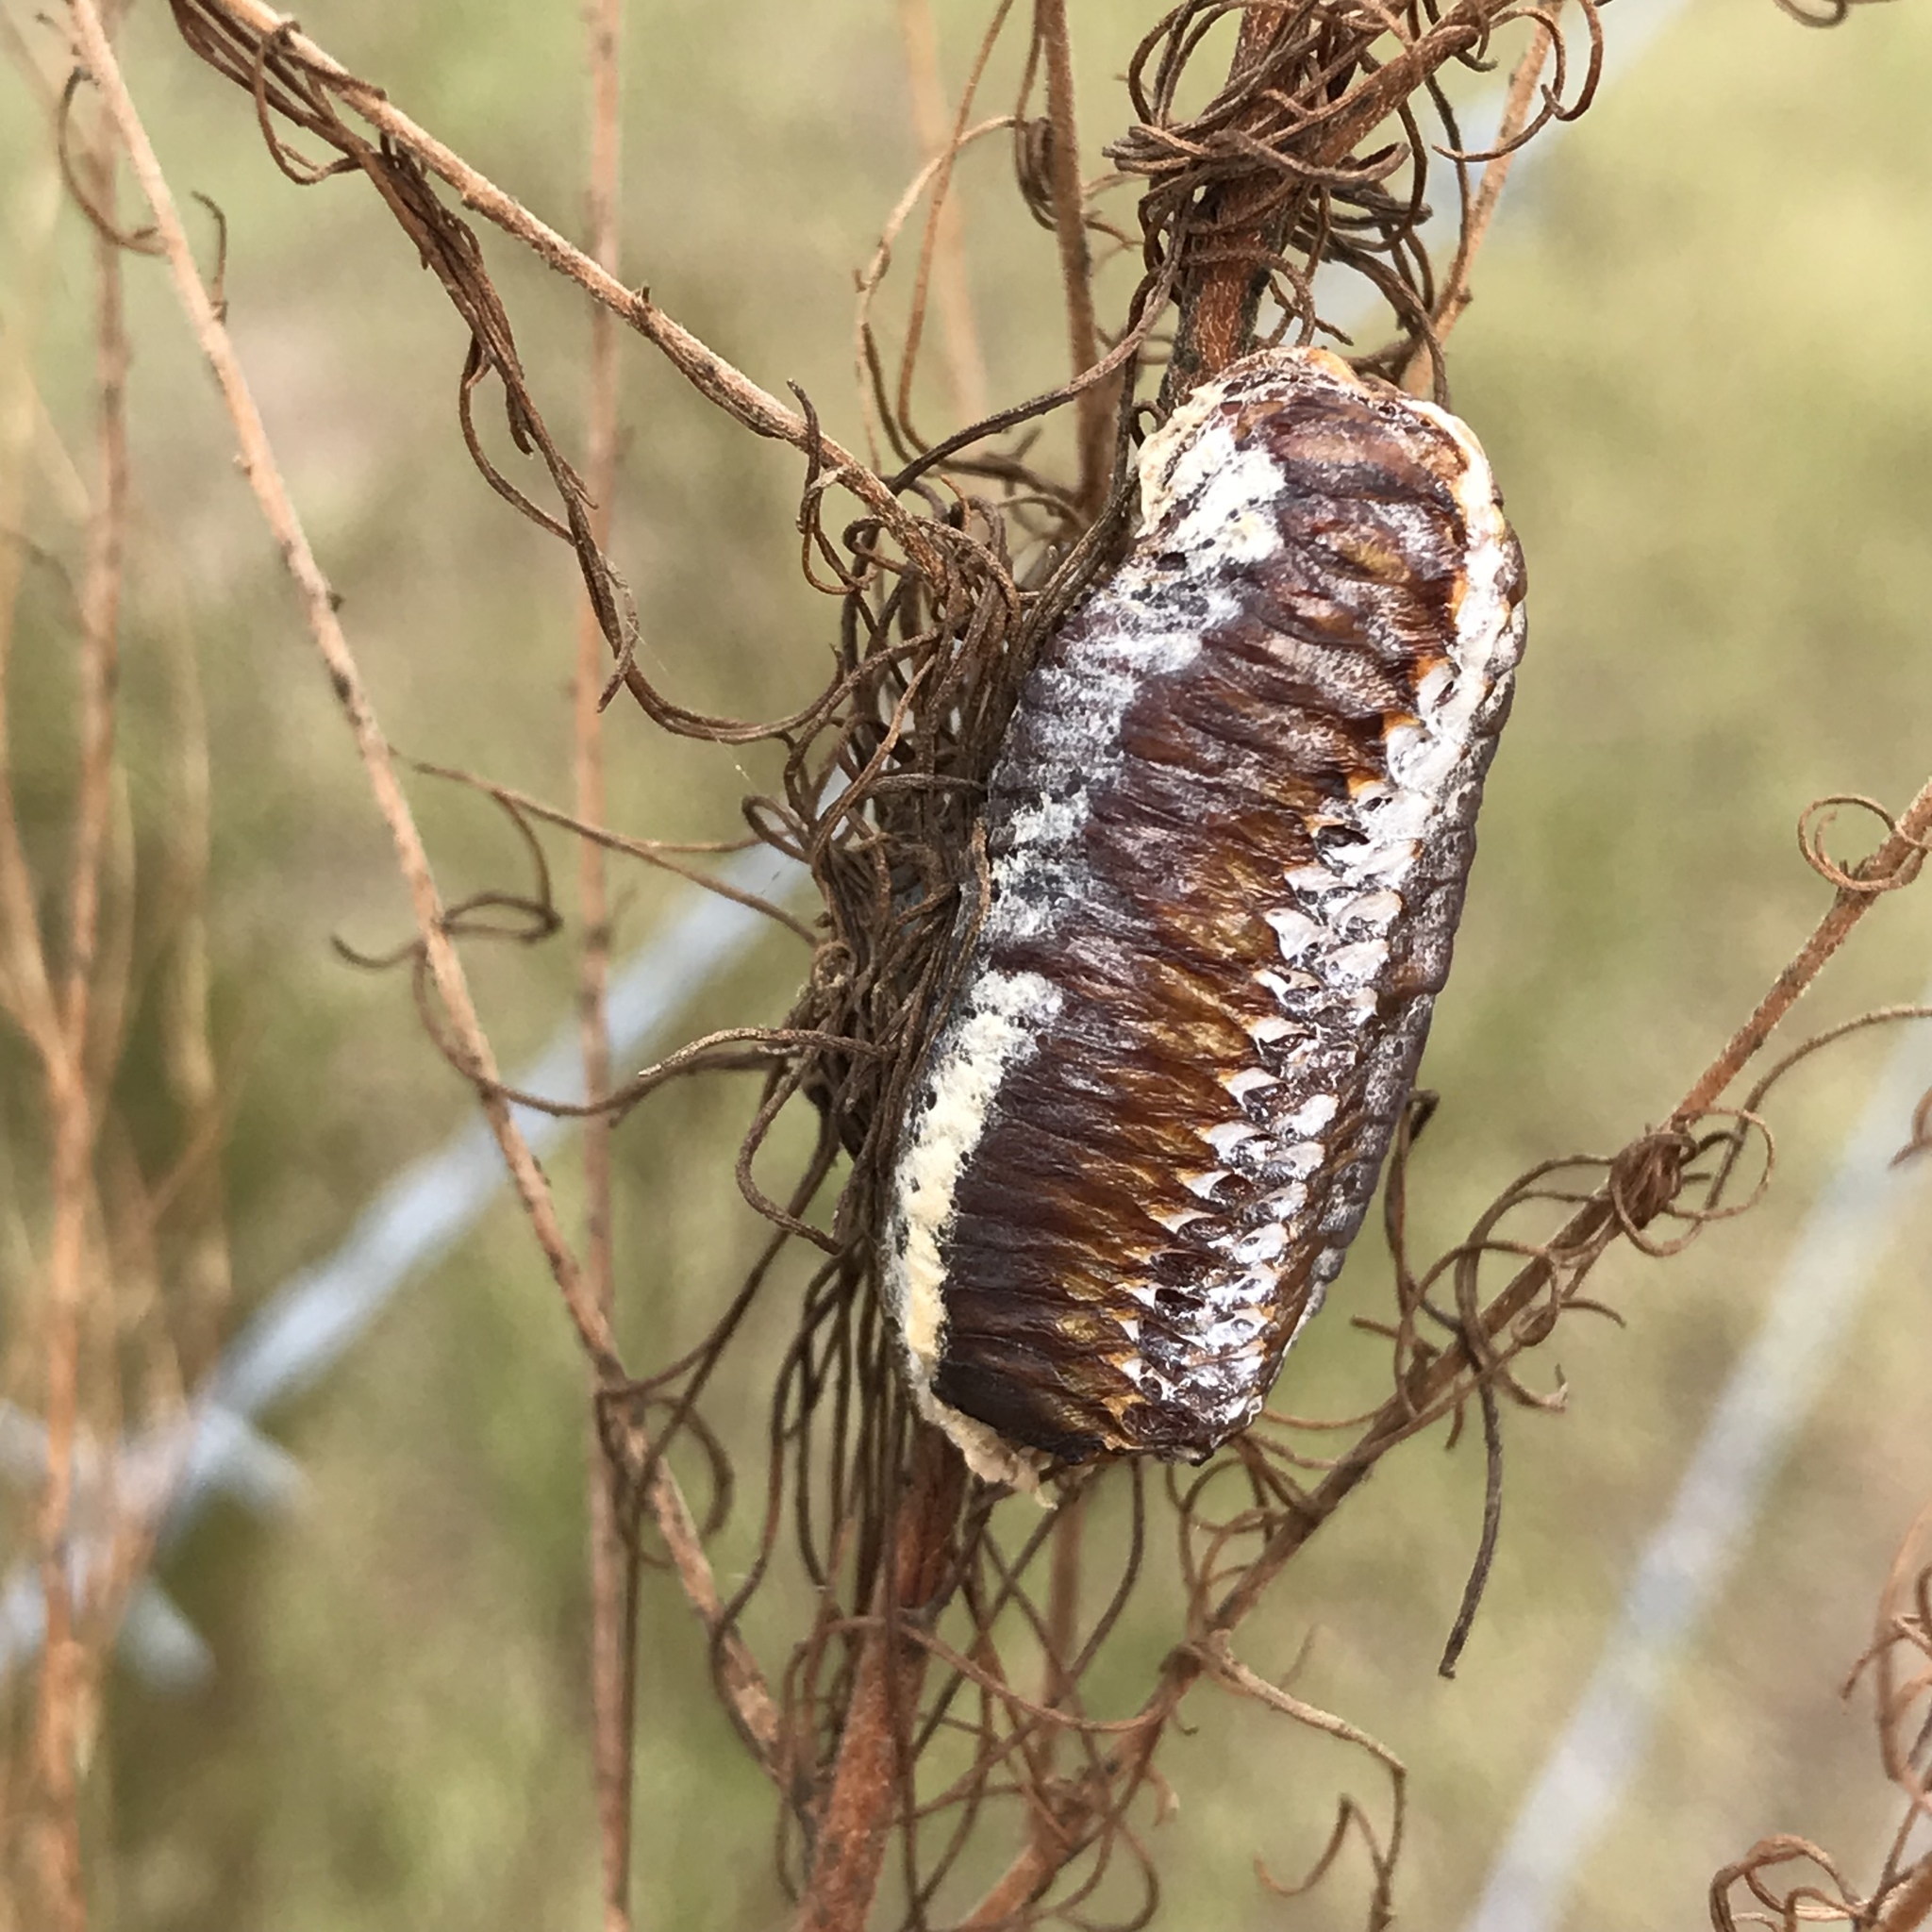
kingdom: Animalia
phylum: Arthropoda
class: Insecta
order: Mantodea
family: Mantidae
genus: Stagmomantis
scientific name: Stagmomantis carolina
